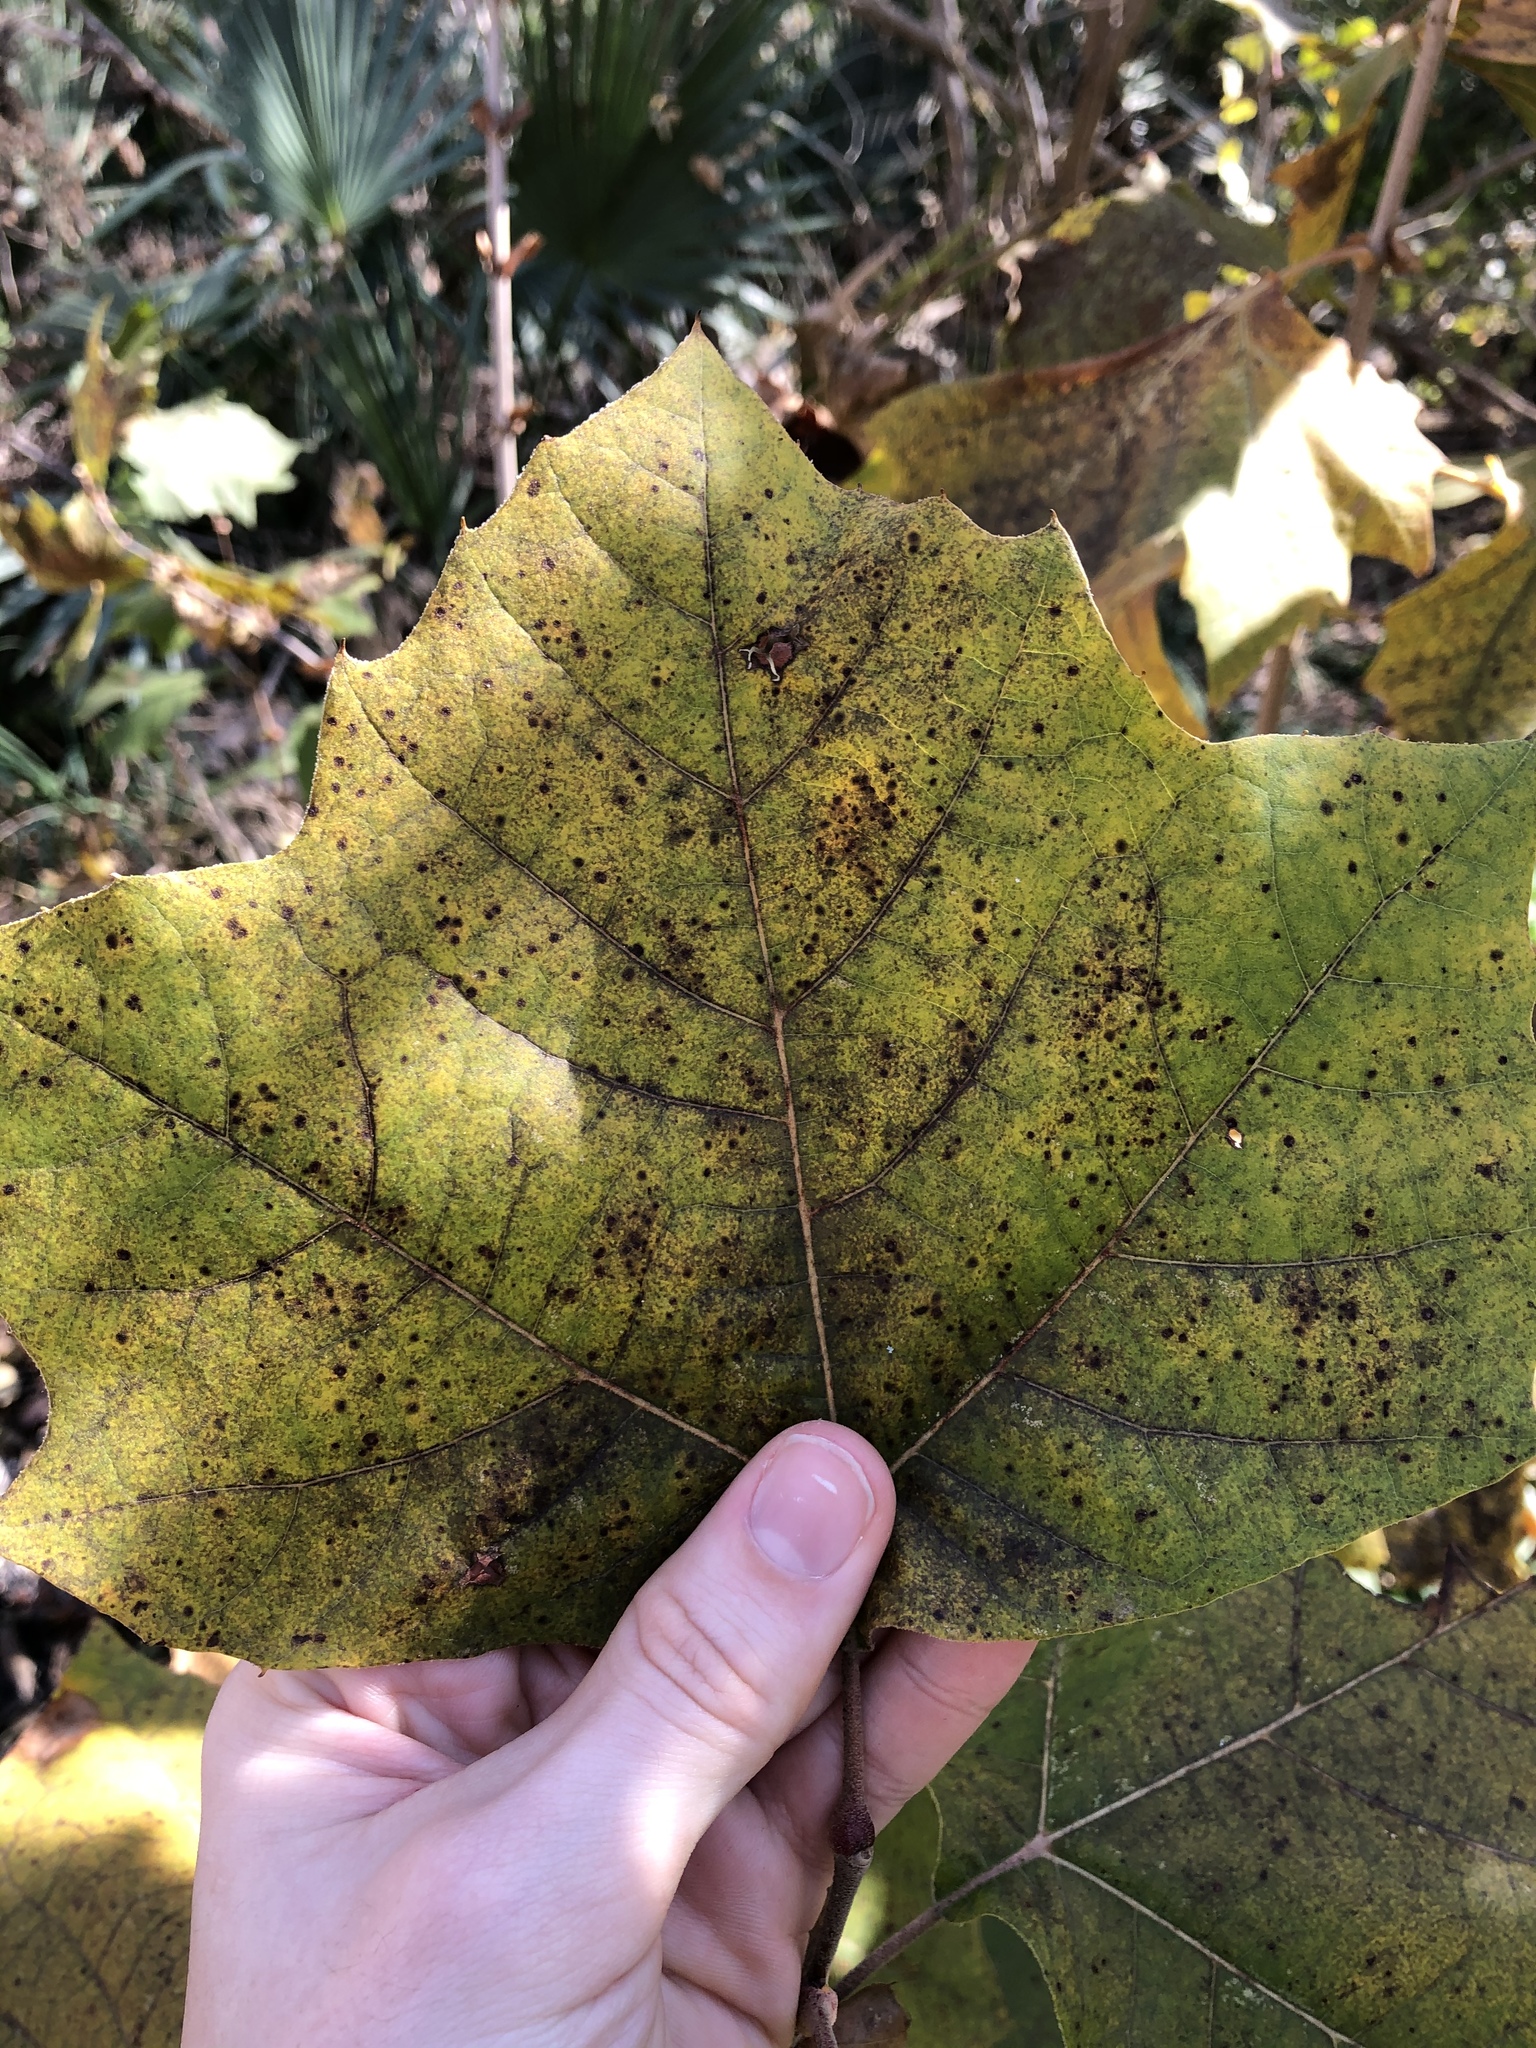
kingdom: Plantae
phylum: Tracheophyta
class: Magnoliopsida
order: Proteales
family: Platanaceae
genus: Platanus
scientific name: Platanus occidentalis
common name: American sycamore
